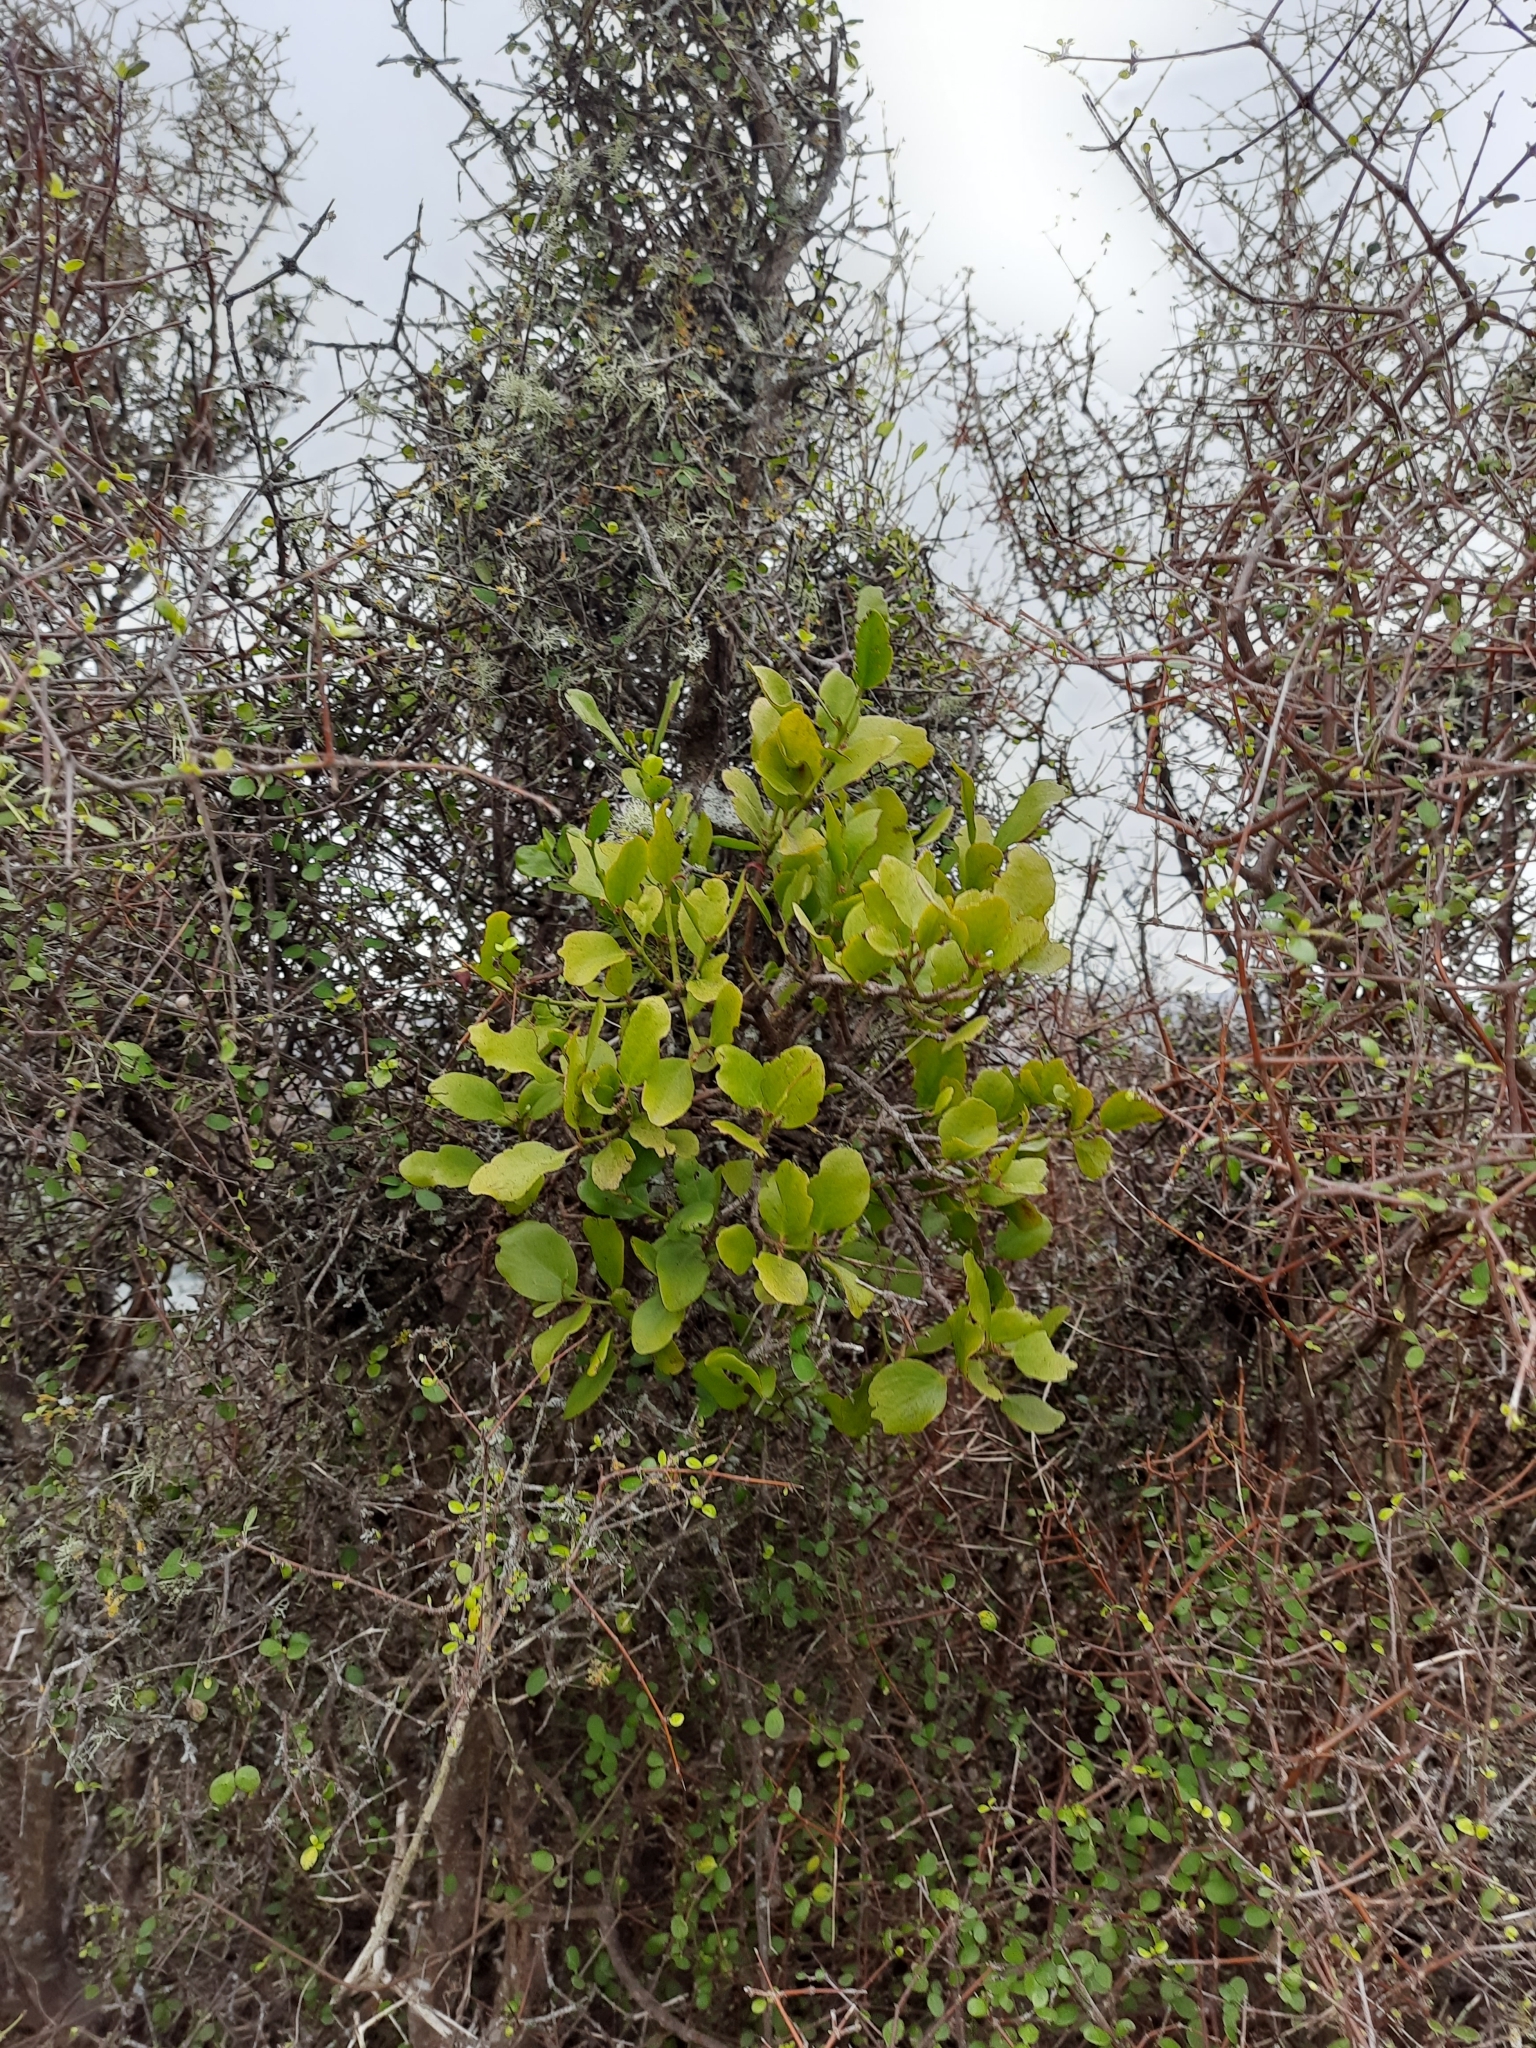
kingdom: Plantae
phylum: Tracheophyta
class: Magnoliopsida
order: Santalales
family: Loranthaceae
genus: Ileostylus
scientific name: Ileostylus micranthus
